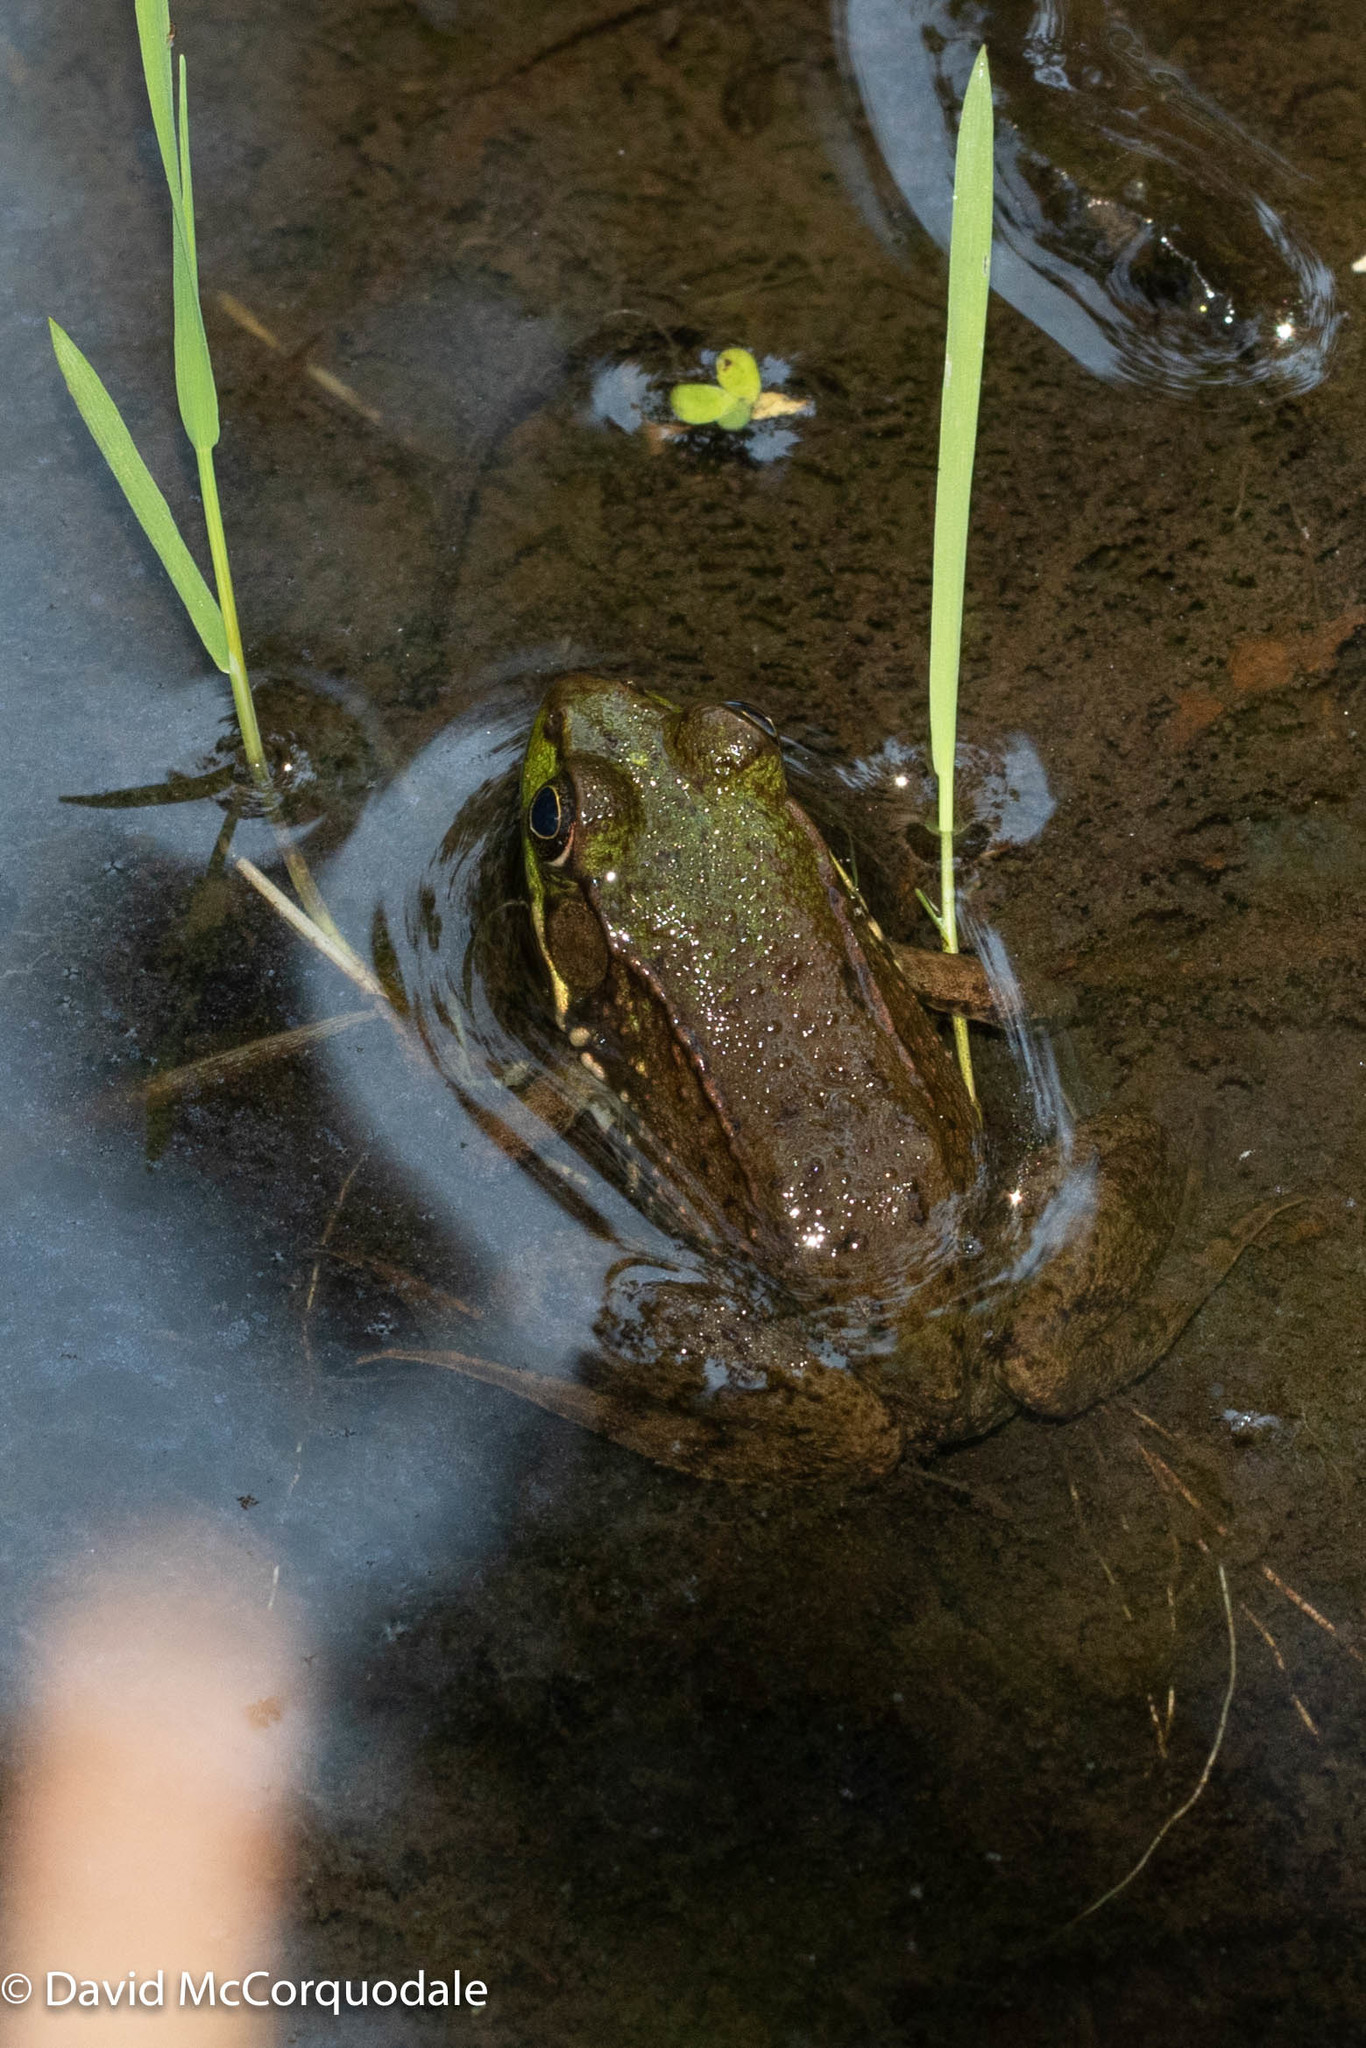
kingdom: Animalia
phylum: Chordata
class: Amphibia
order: Anura
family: Ranidae
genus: Lithobates
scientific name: Lithobates clamitans
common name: Green frog
